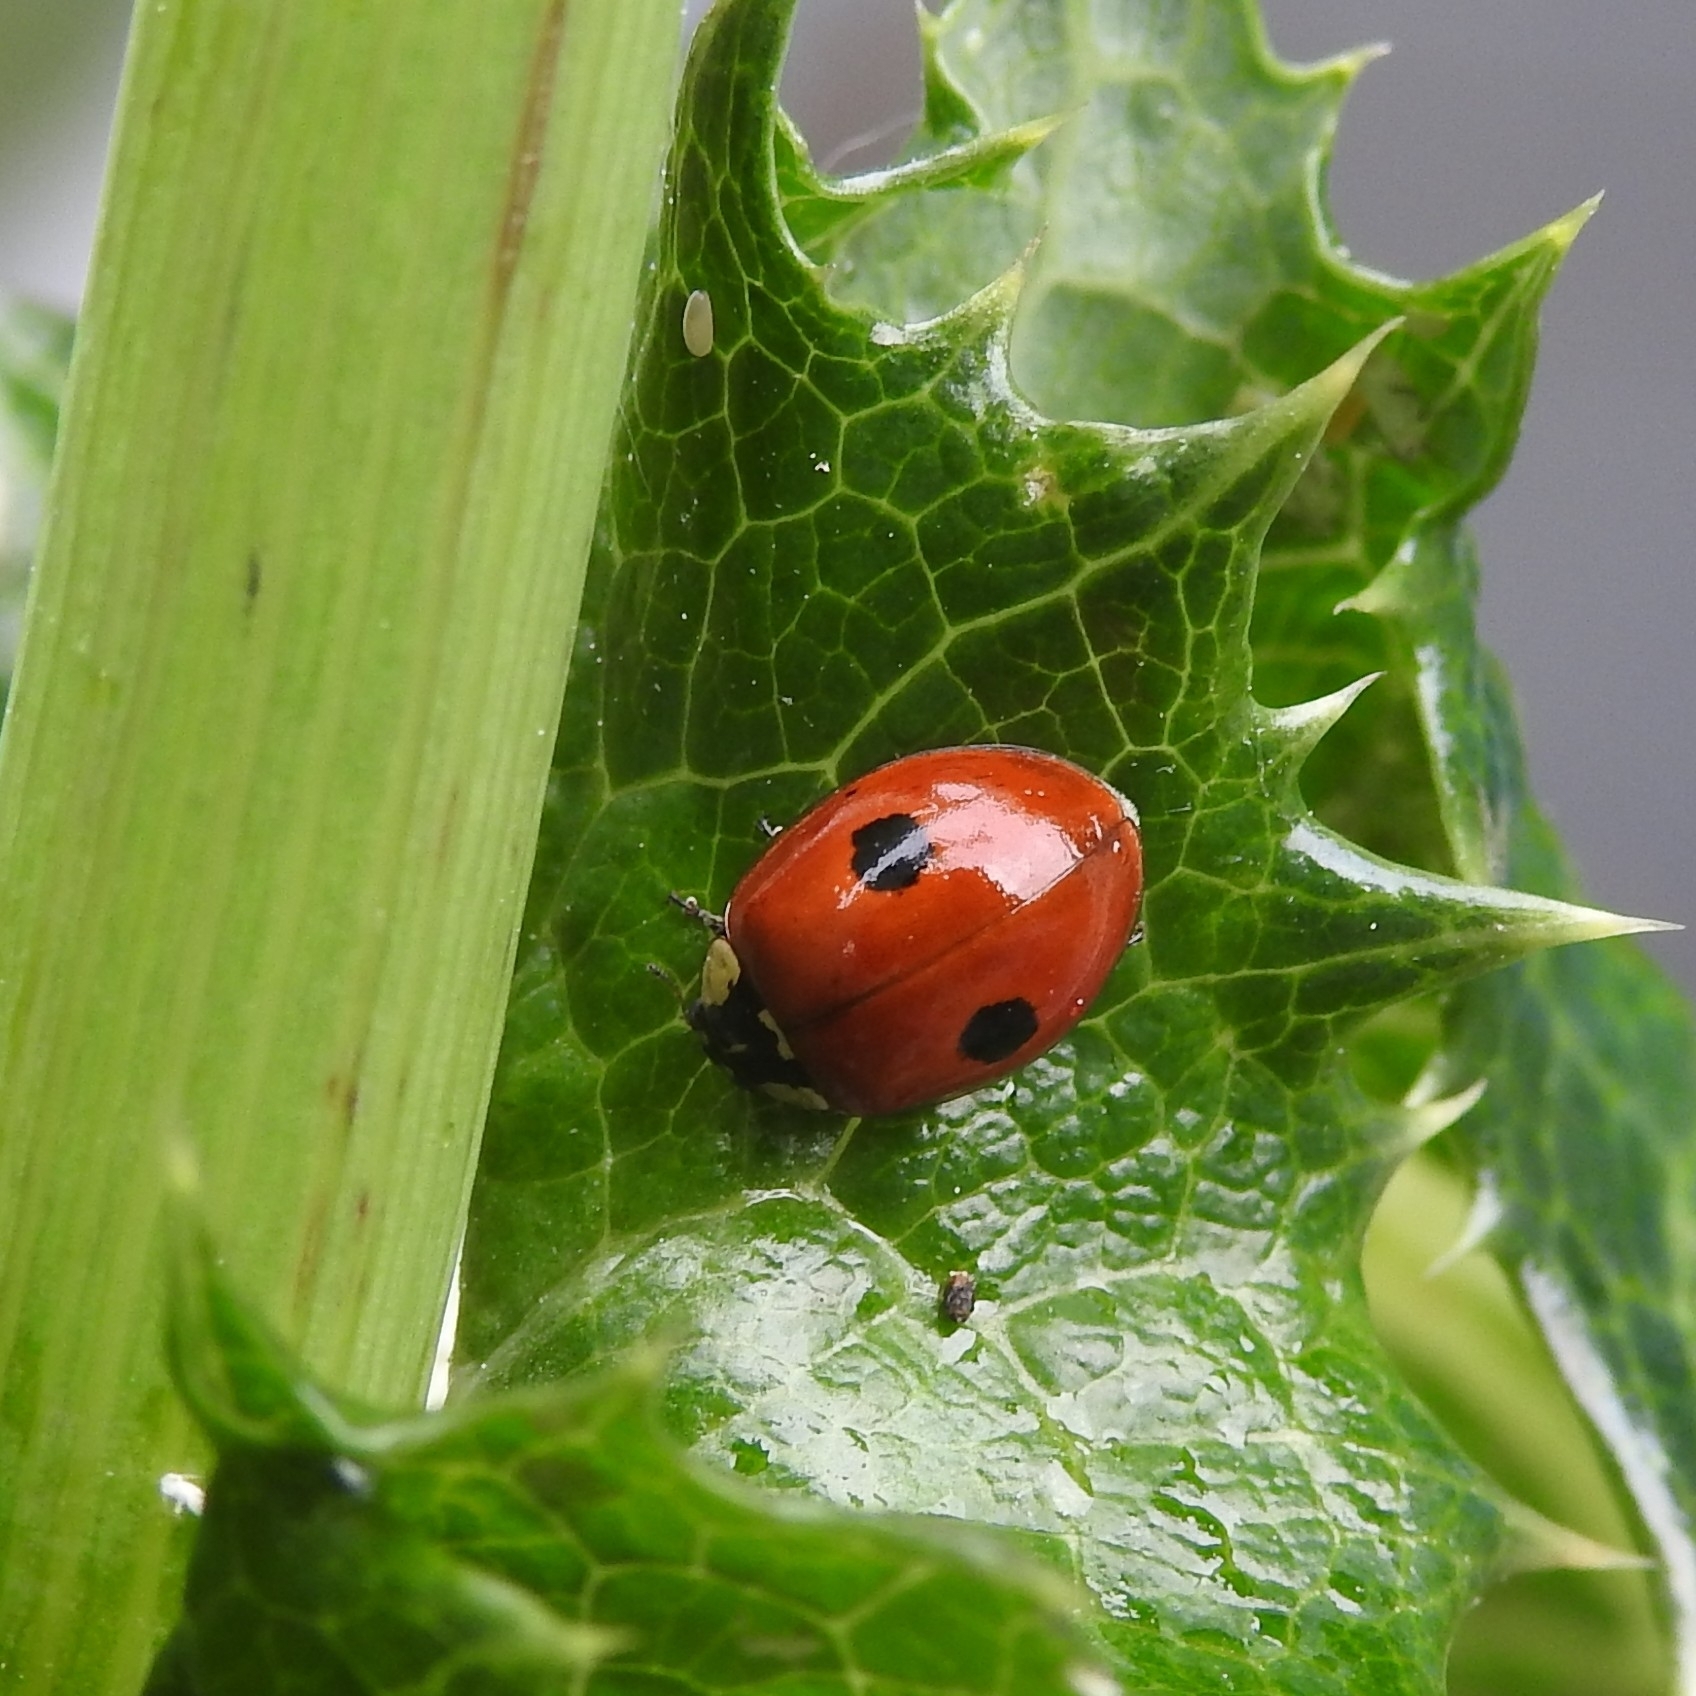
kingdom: Animalia
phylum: Arthropoda
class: Insecta
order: Coleoptera
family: Coccinellidae
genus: Adalia
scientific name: Adalia bipunctata
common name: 2-spot ladybird
